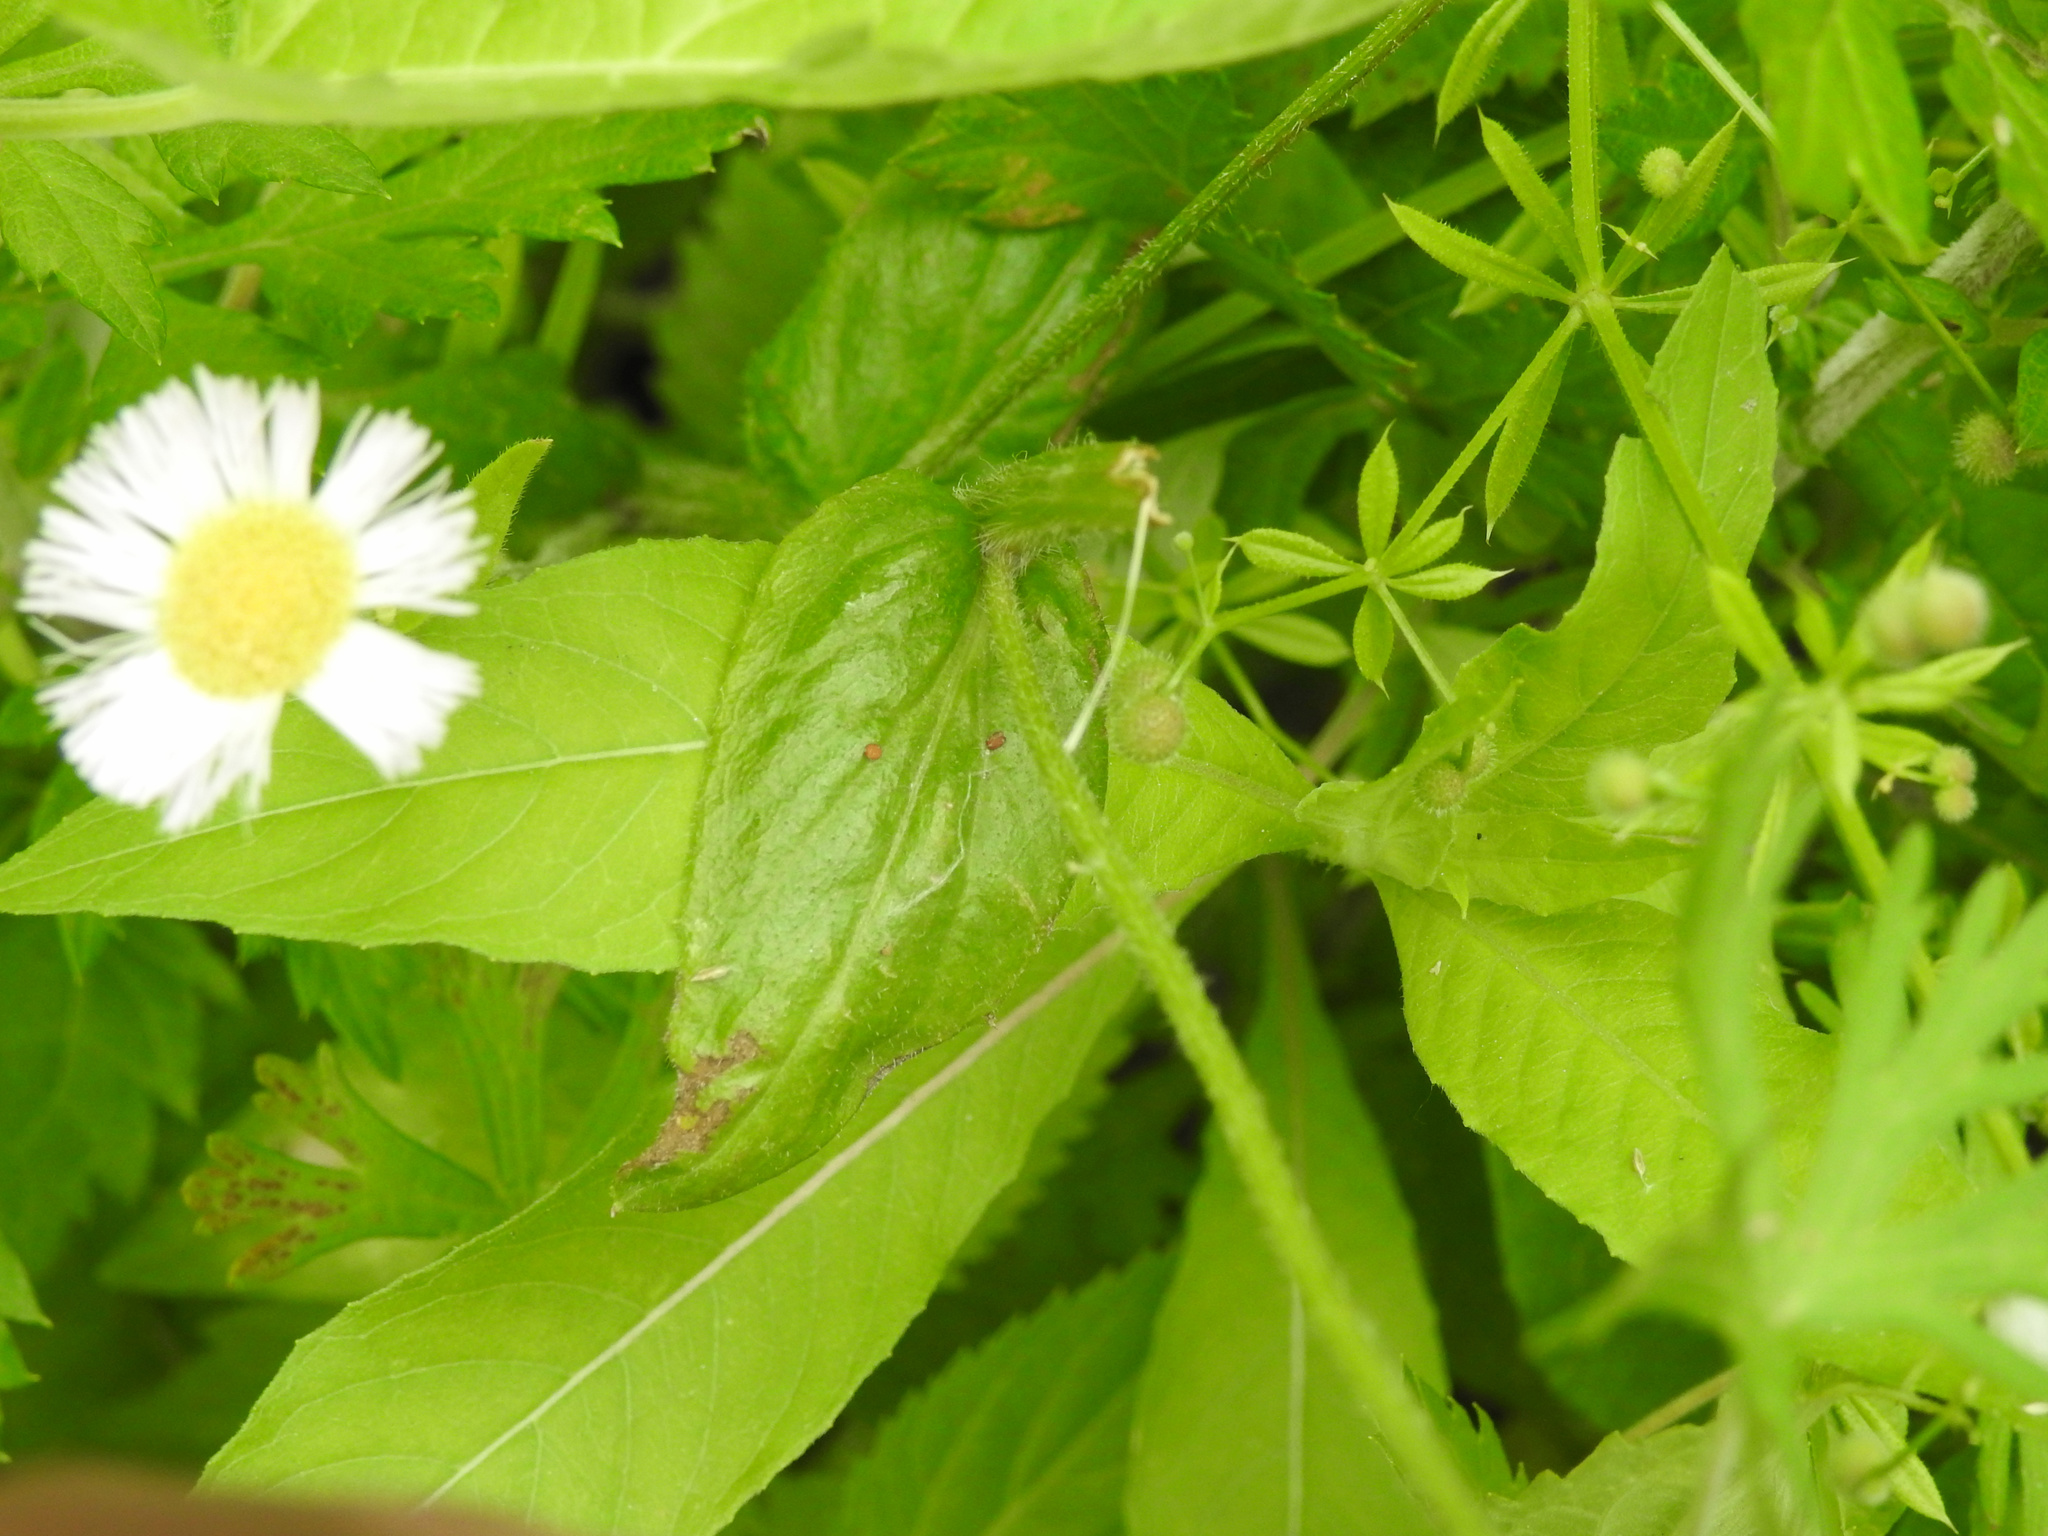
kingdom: Plantae
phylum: Tracheophyta
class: Magnoliopsida
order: Asterales
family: Asteraceae
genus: Erigeron
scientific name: Erigeron philadelphicus
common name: Robin's-plantain
